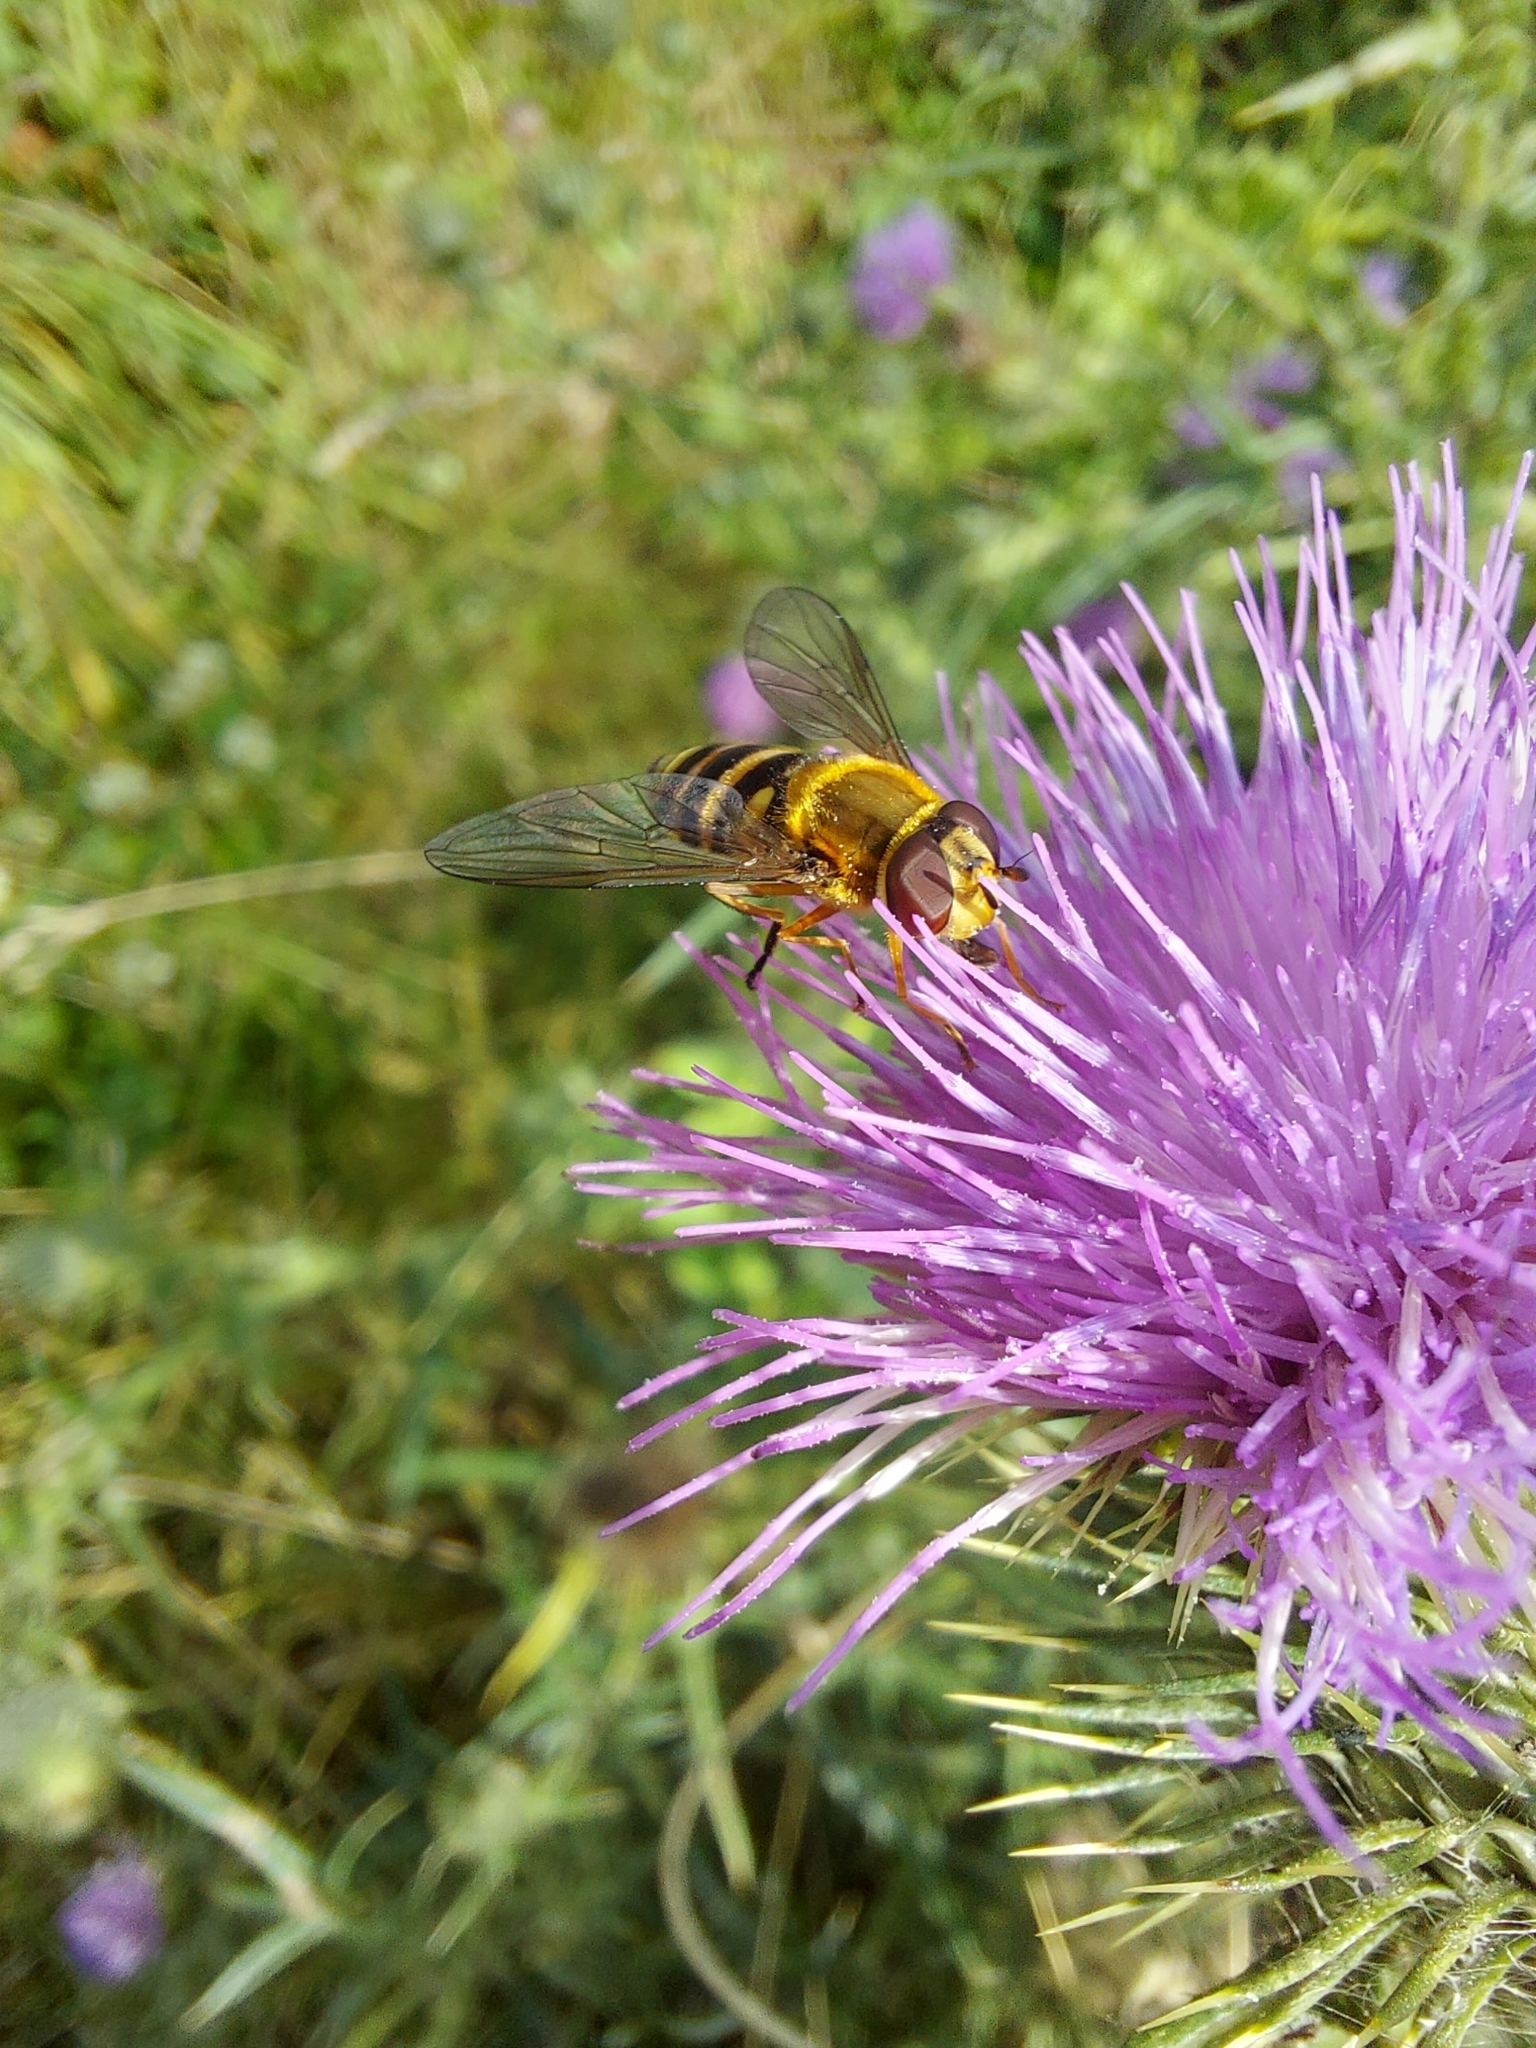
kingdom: Animalia
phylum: Arthropoda
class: Insecta
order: Diptera
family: Syrphidae
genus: Syrphus
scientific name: Syrphus ribesii
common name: Common flower fly
